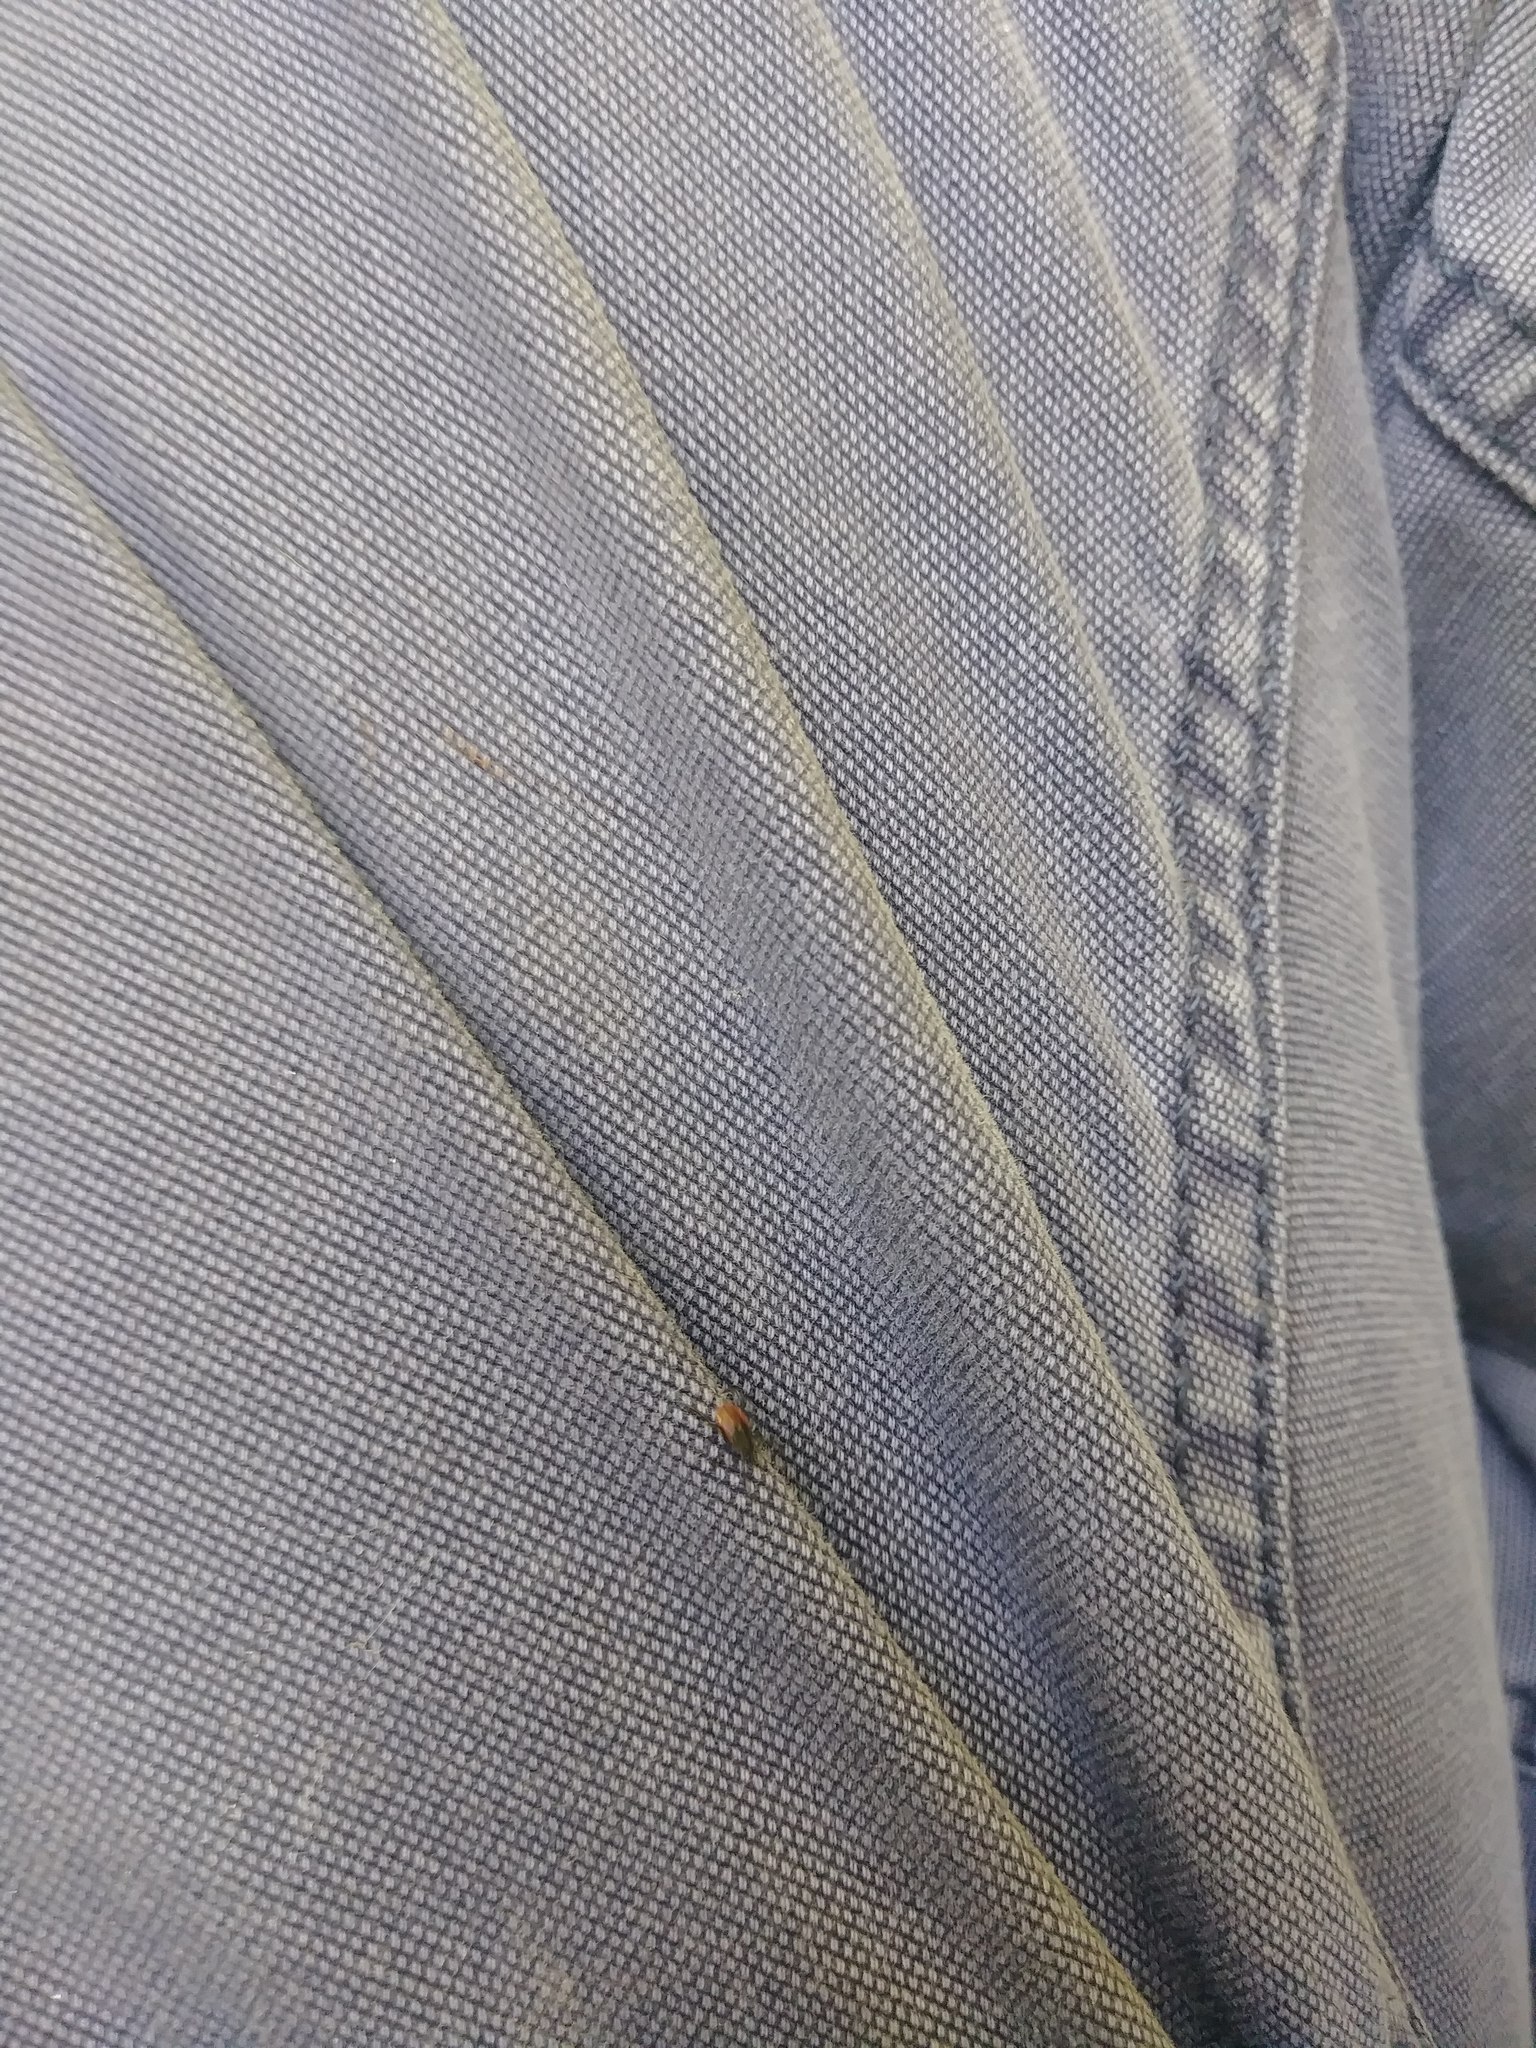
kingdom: Animalia
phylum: Arthropoda
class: Arachnida
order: Ixodida
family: Ixodidae
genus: Ixodes
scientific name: Ixodes pacificus
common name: California black-legged tick
